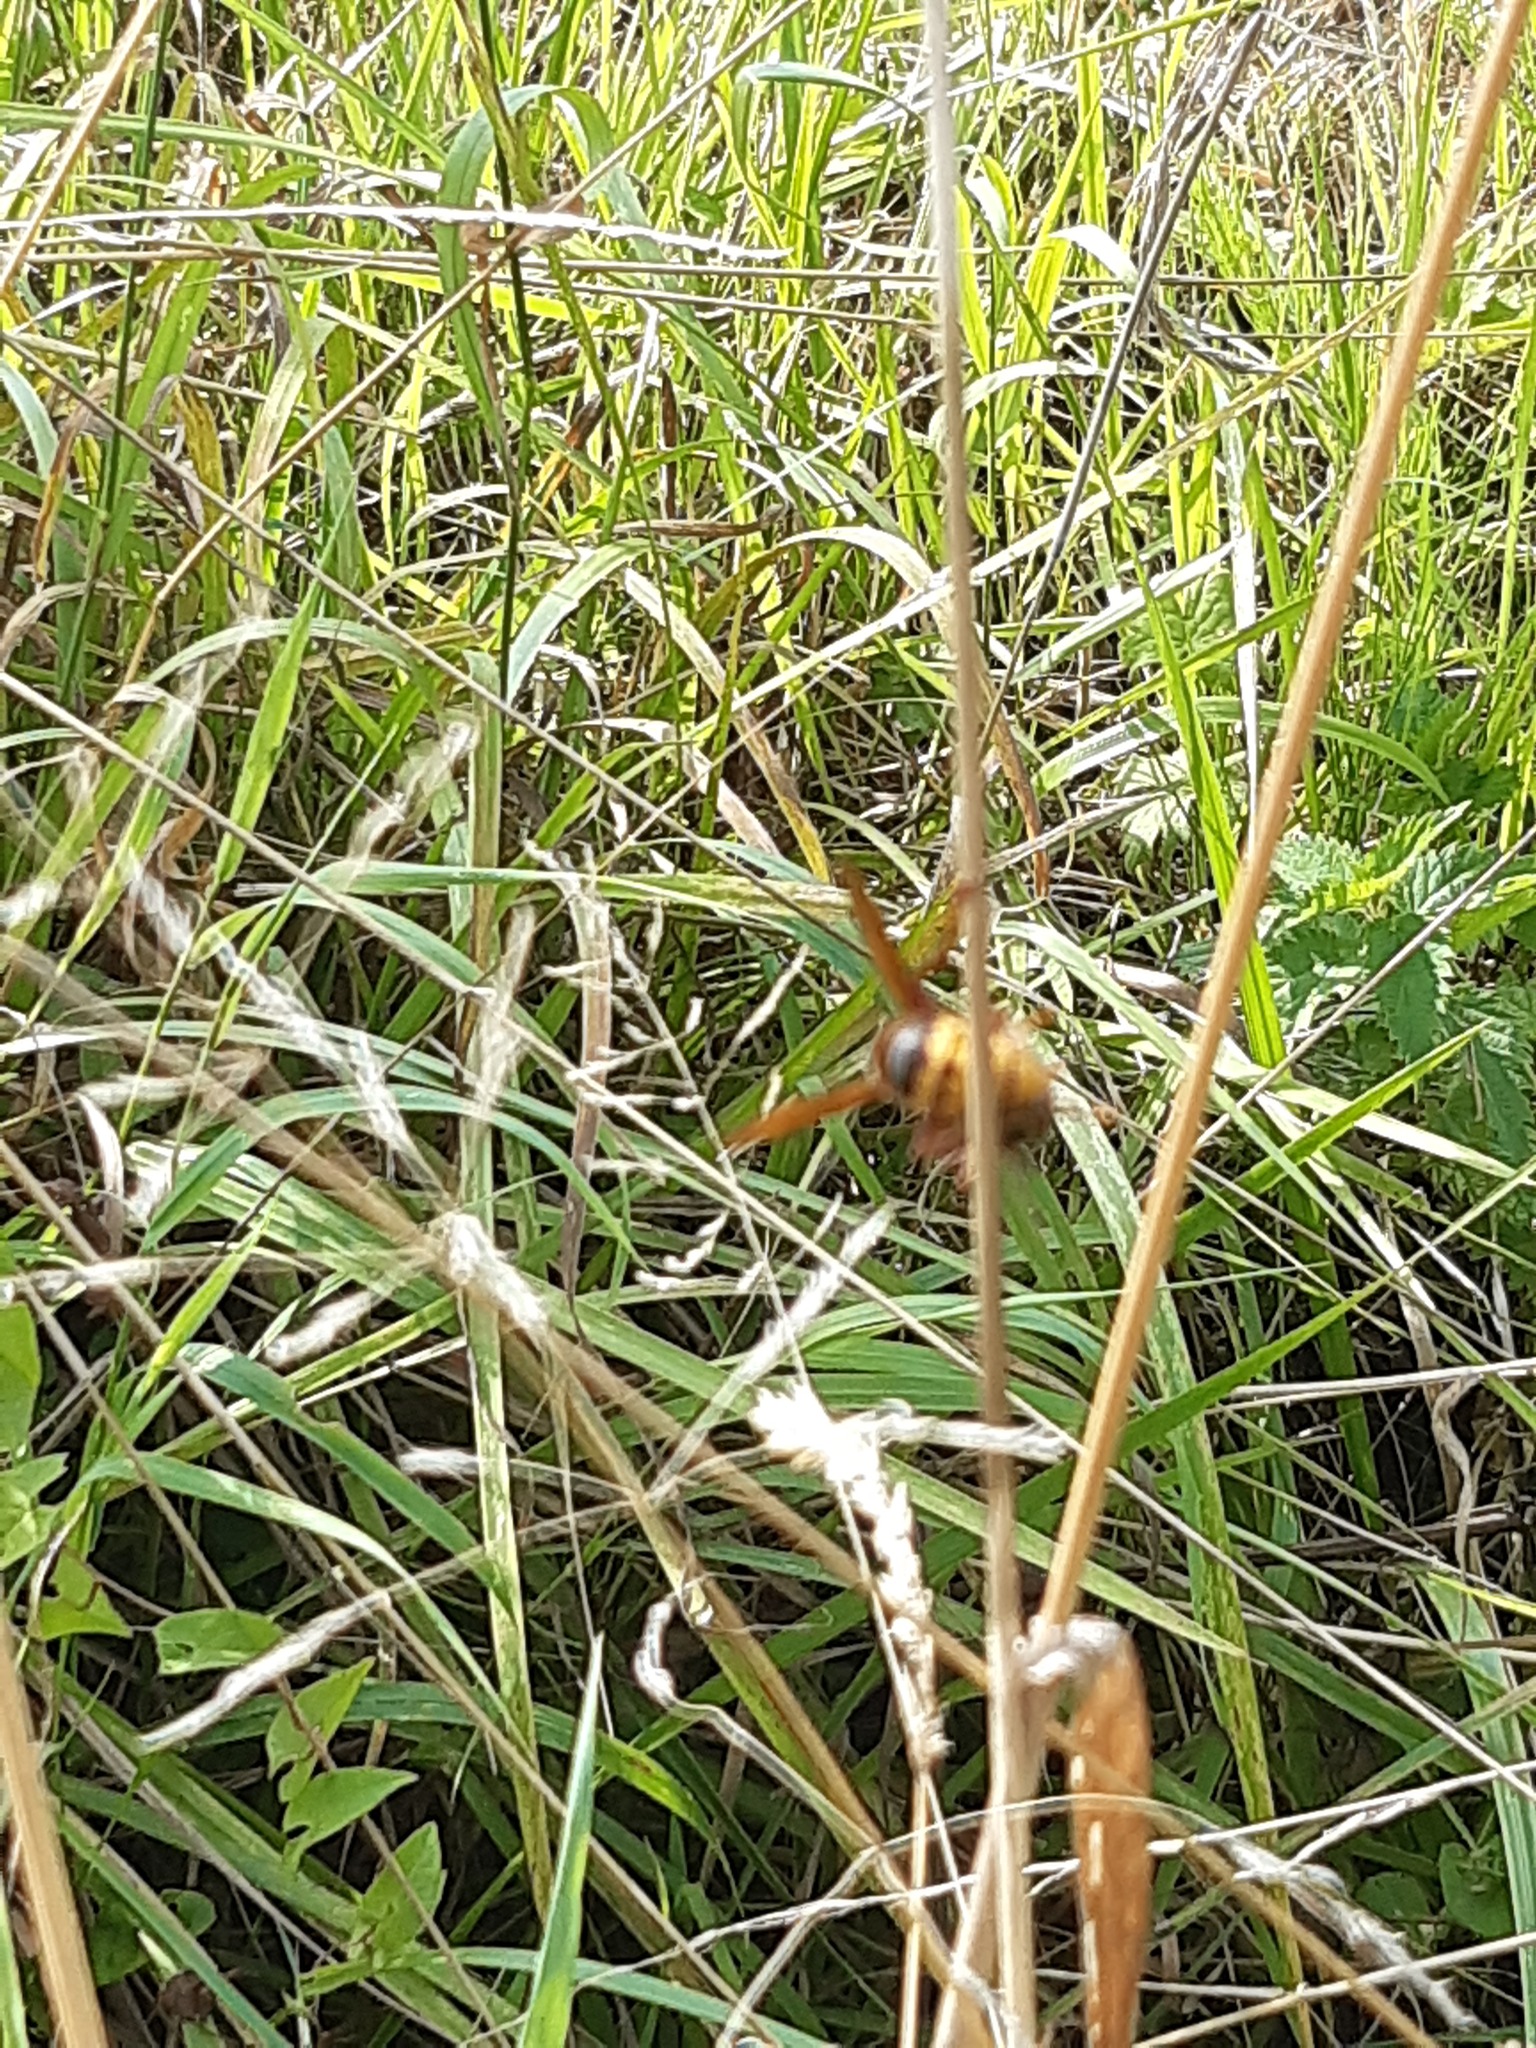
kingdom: Animalia
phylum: Arthropoda
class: Insecta
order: Hymenoptera
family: Vespidae
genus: Vespa
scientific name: Vespa crabro
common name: Hornet
